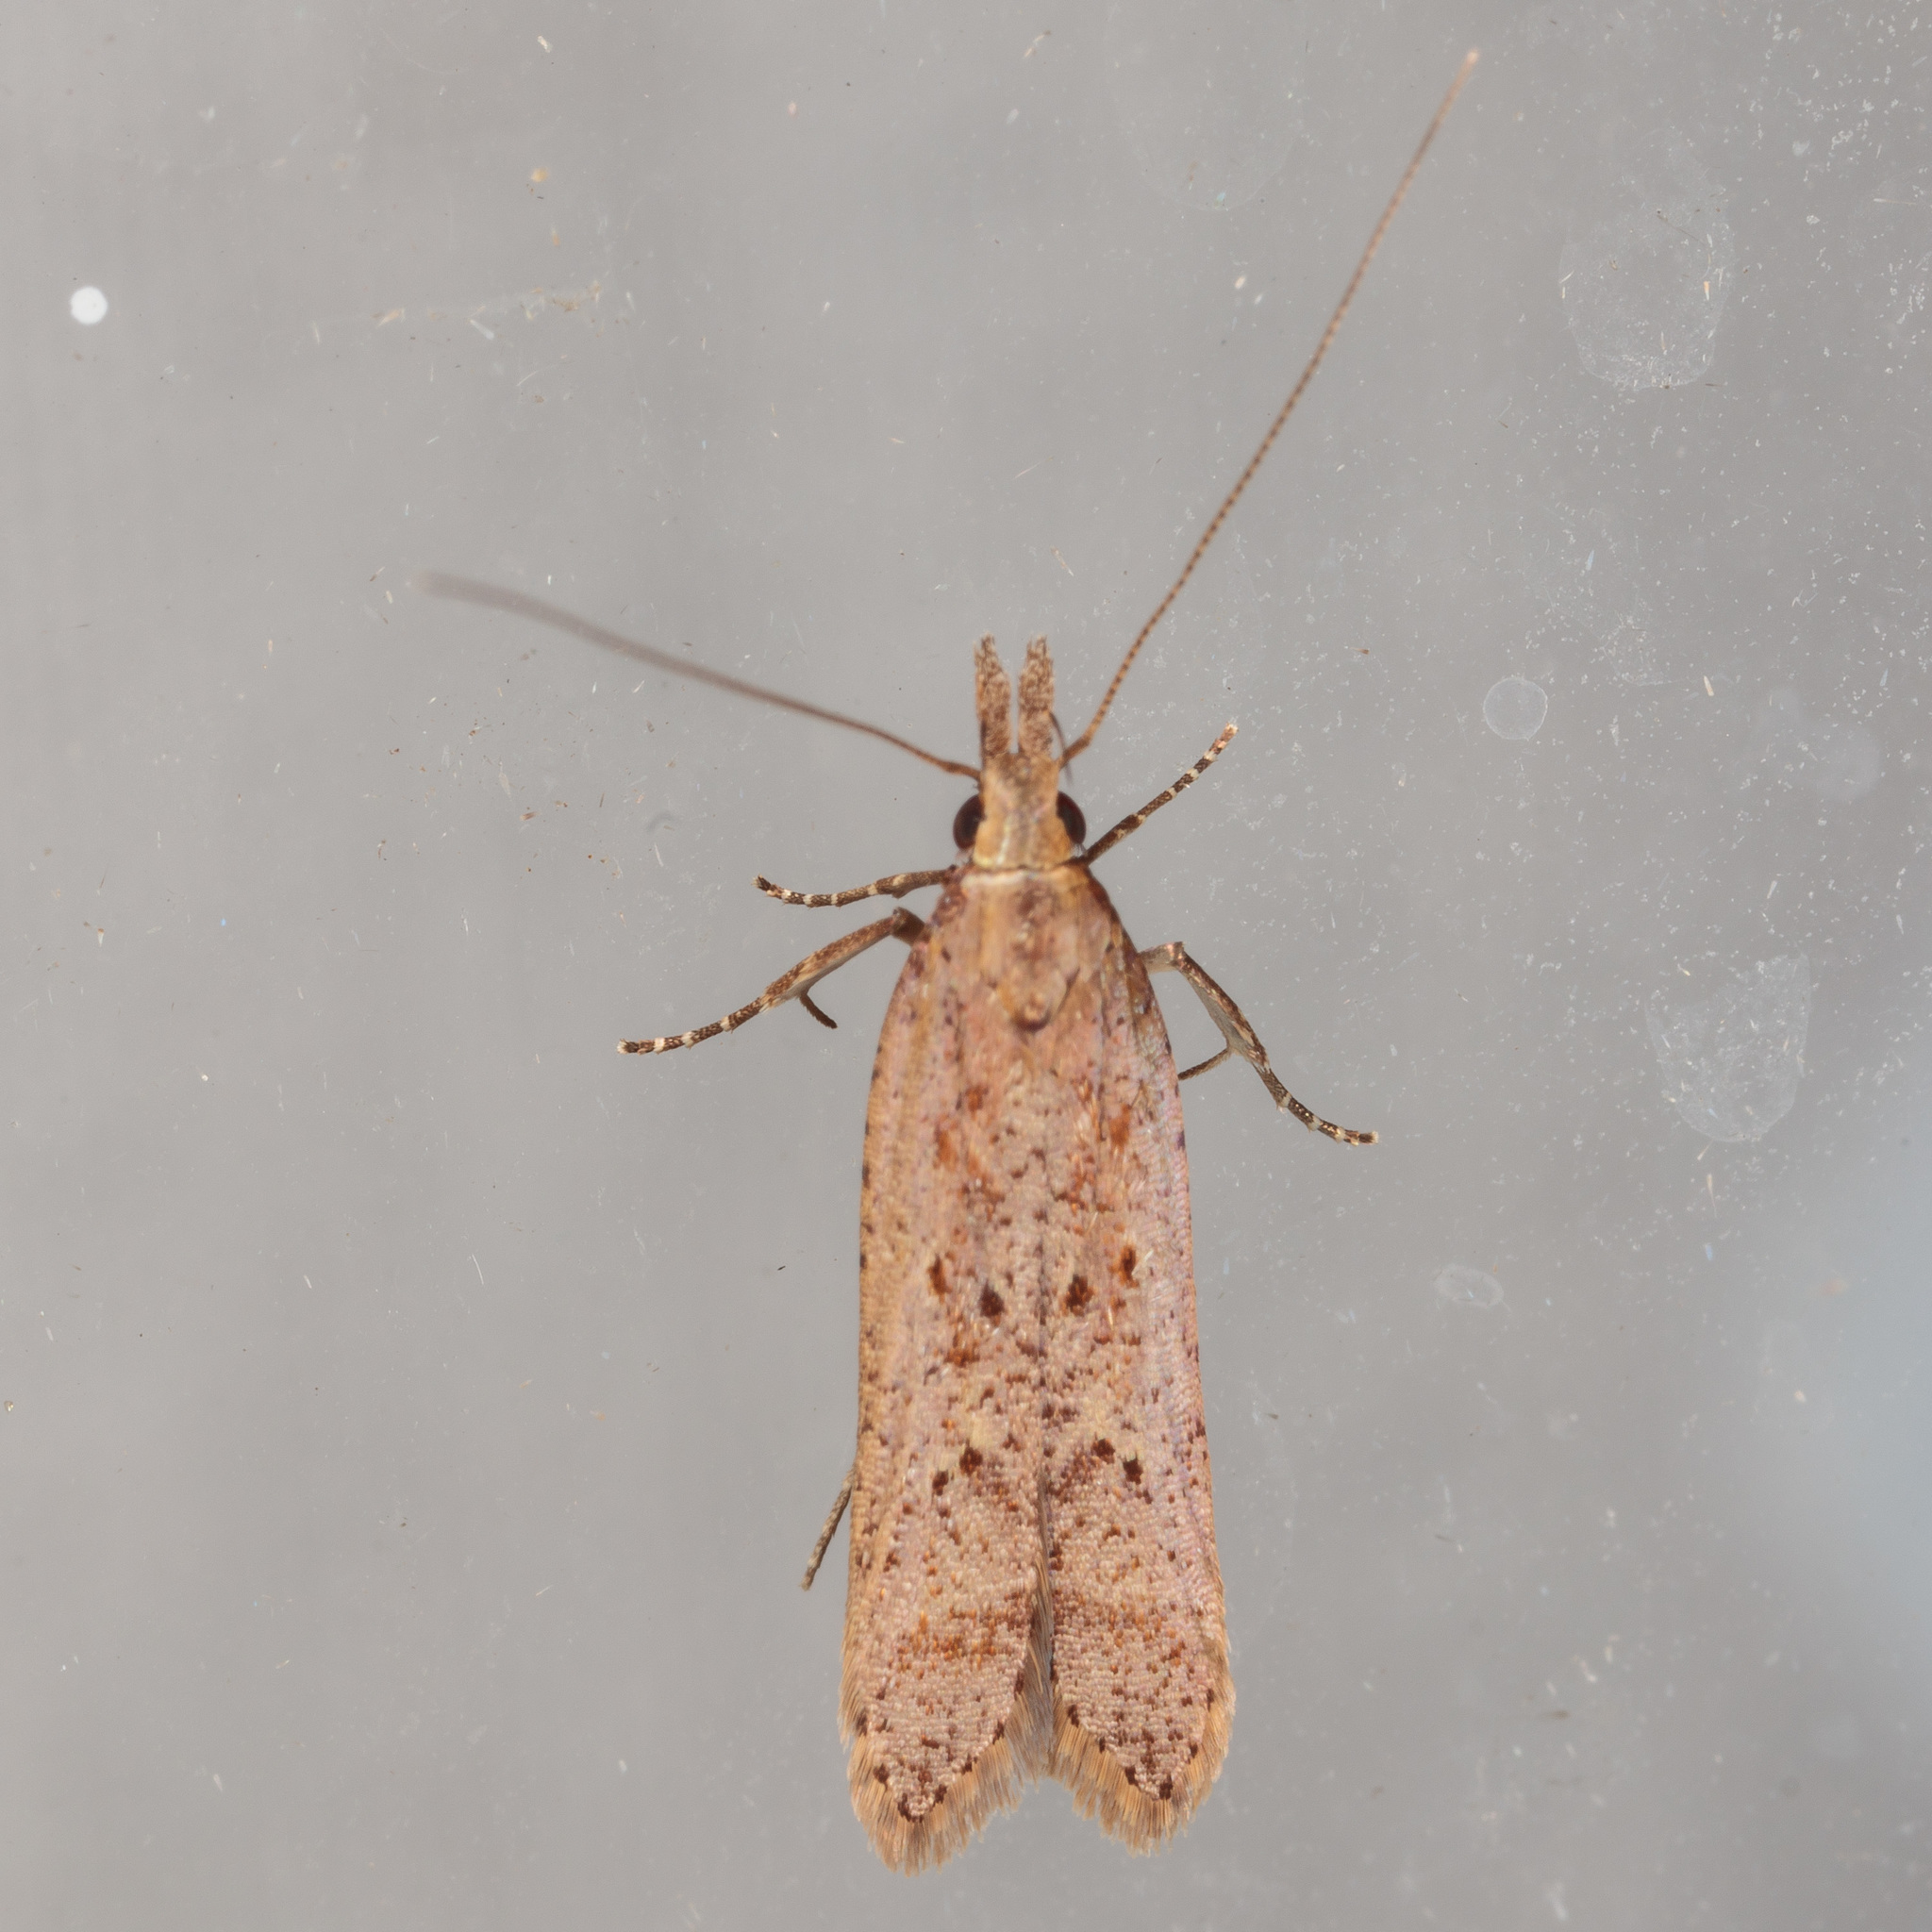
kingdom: Animalia
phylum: Arthropoda
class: Insecta
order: Lepidoptera
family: Gelechiidae
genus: Dichomeris
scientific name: Dichomeris ligulella
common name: Moth
